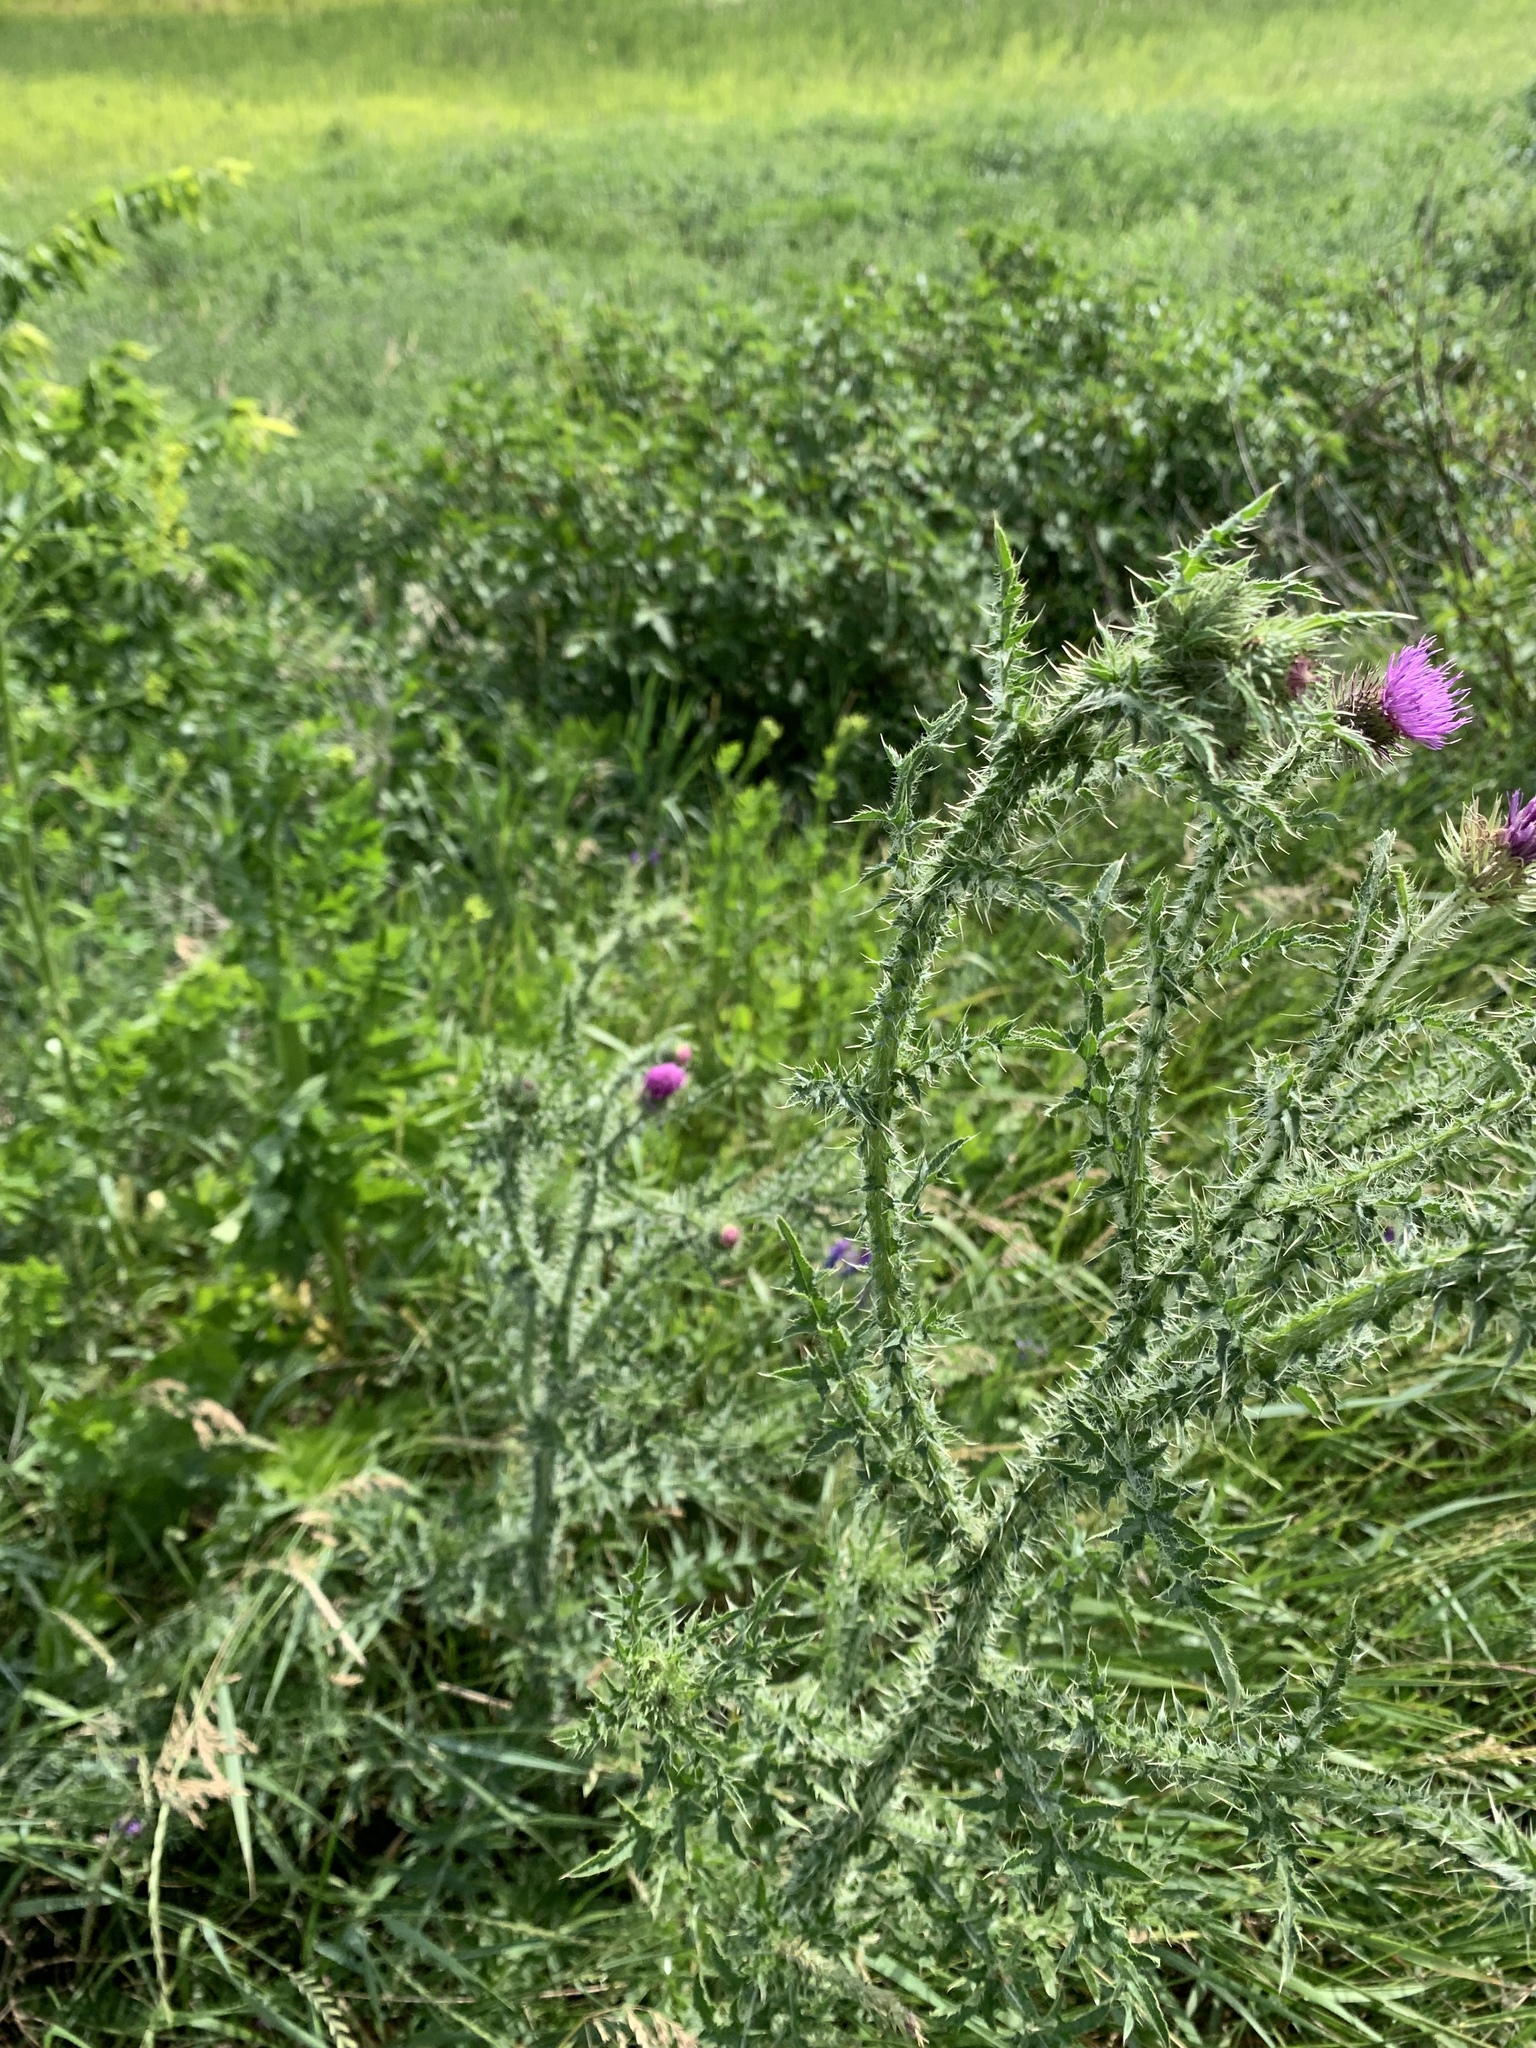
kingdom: Plantae
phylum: Tracheophyta
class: Magnoliopsida
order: Asterales
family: Asteraceae
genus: Carduus
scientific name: Carduus acanthoides
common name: Plumeless thistle
